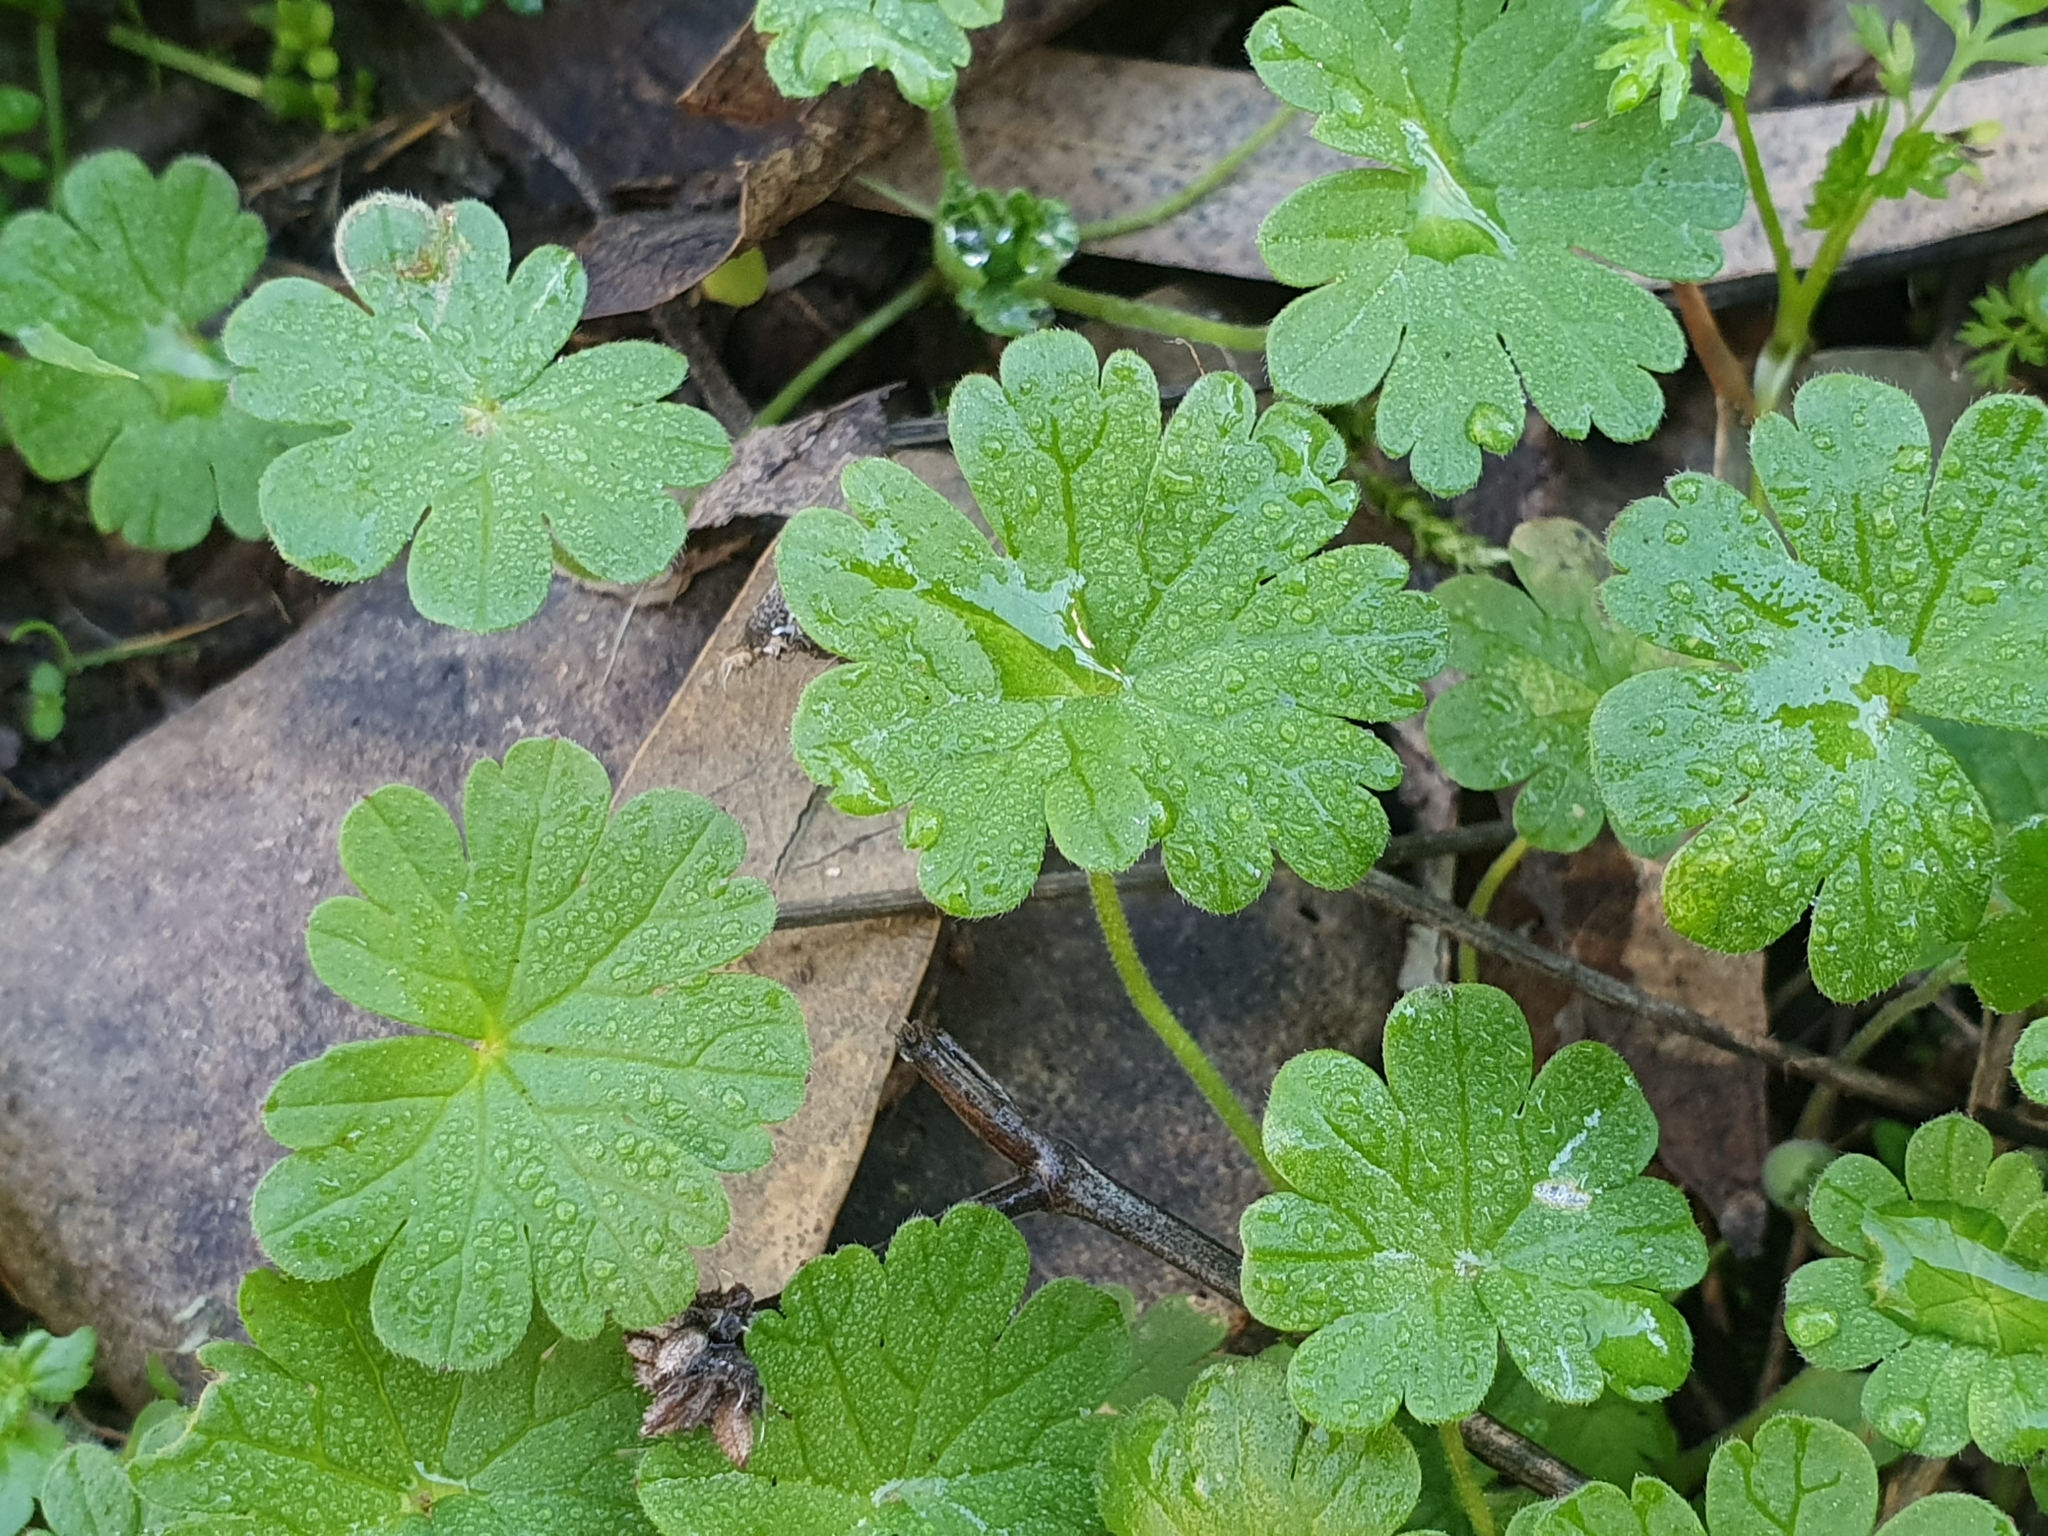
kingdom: Plantae
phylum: Tracheophyta
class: Magnoliopsida
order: Geraniales
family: Geraniaceae
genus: Geranium
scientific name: Geranium molle
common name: Dove's-foot crane's-bill
